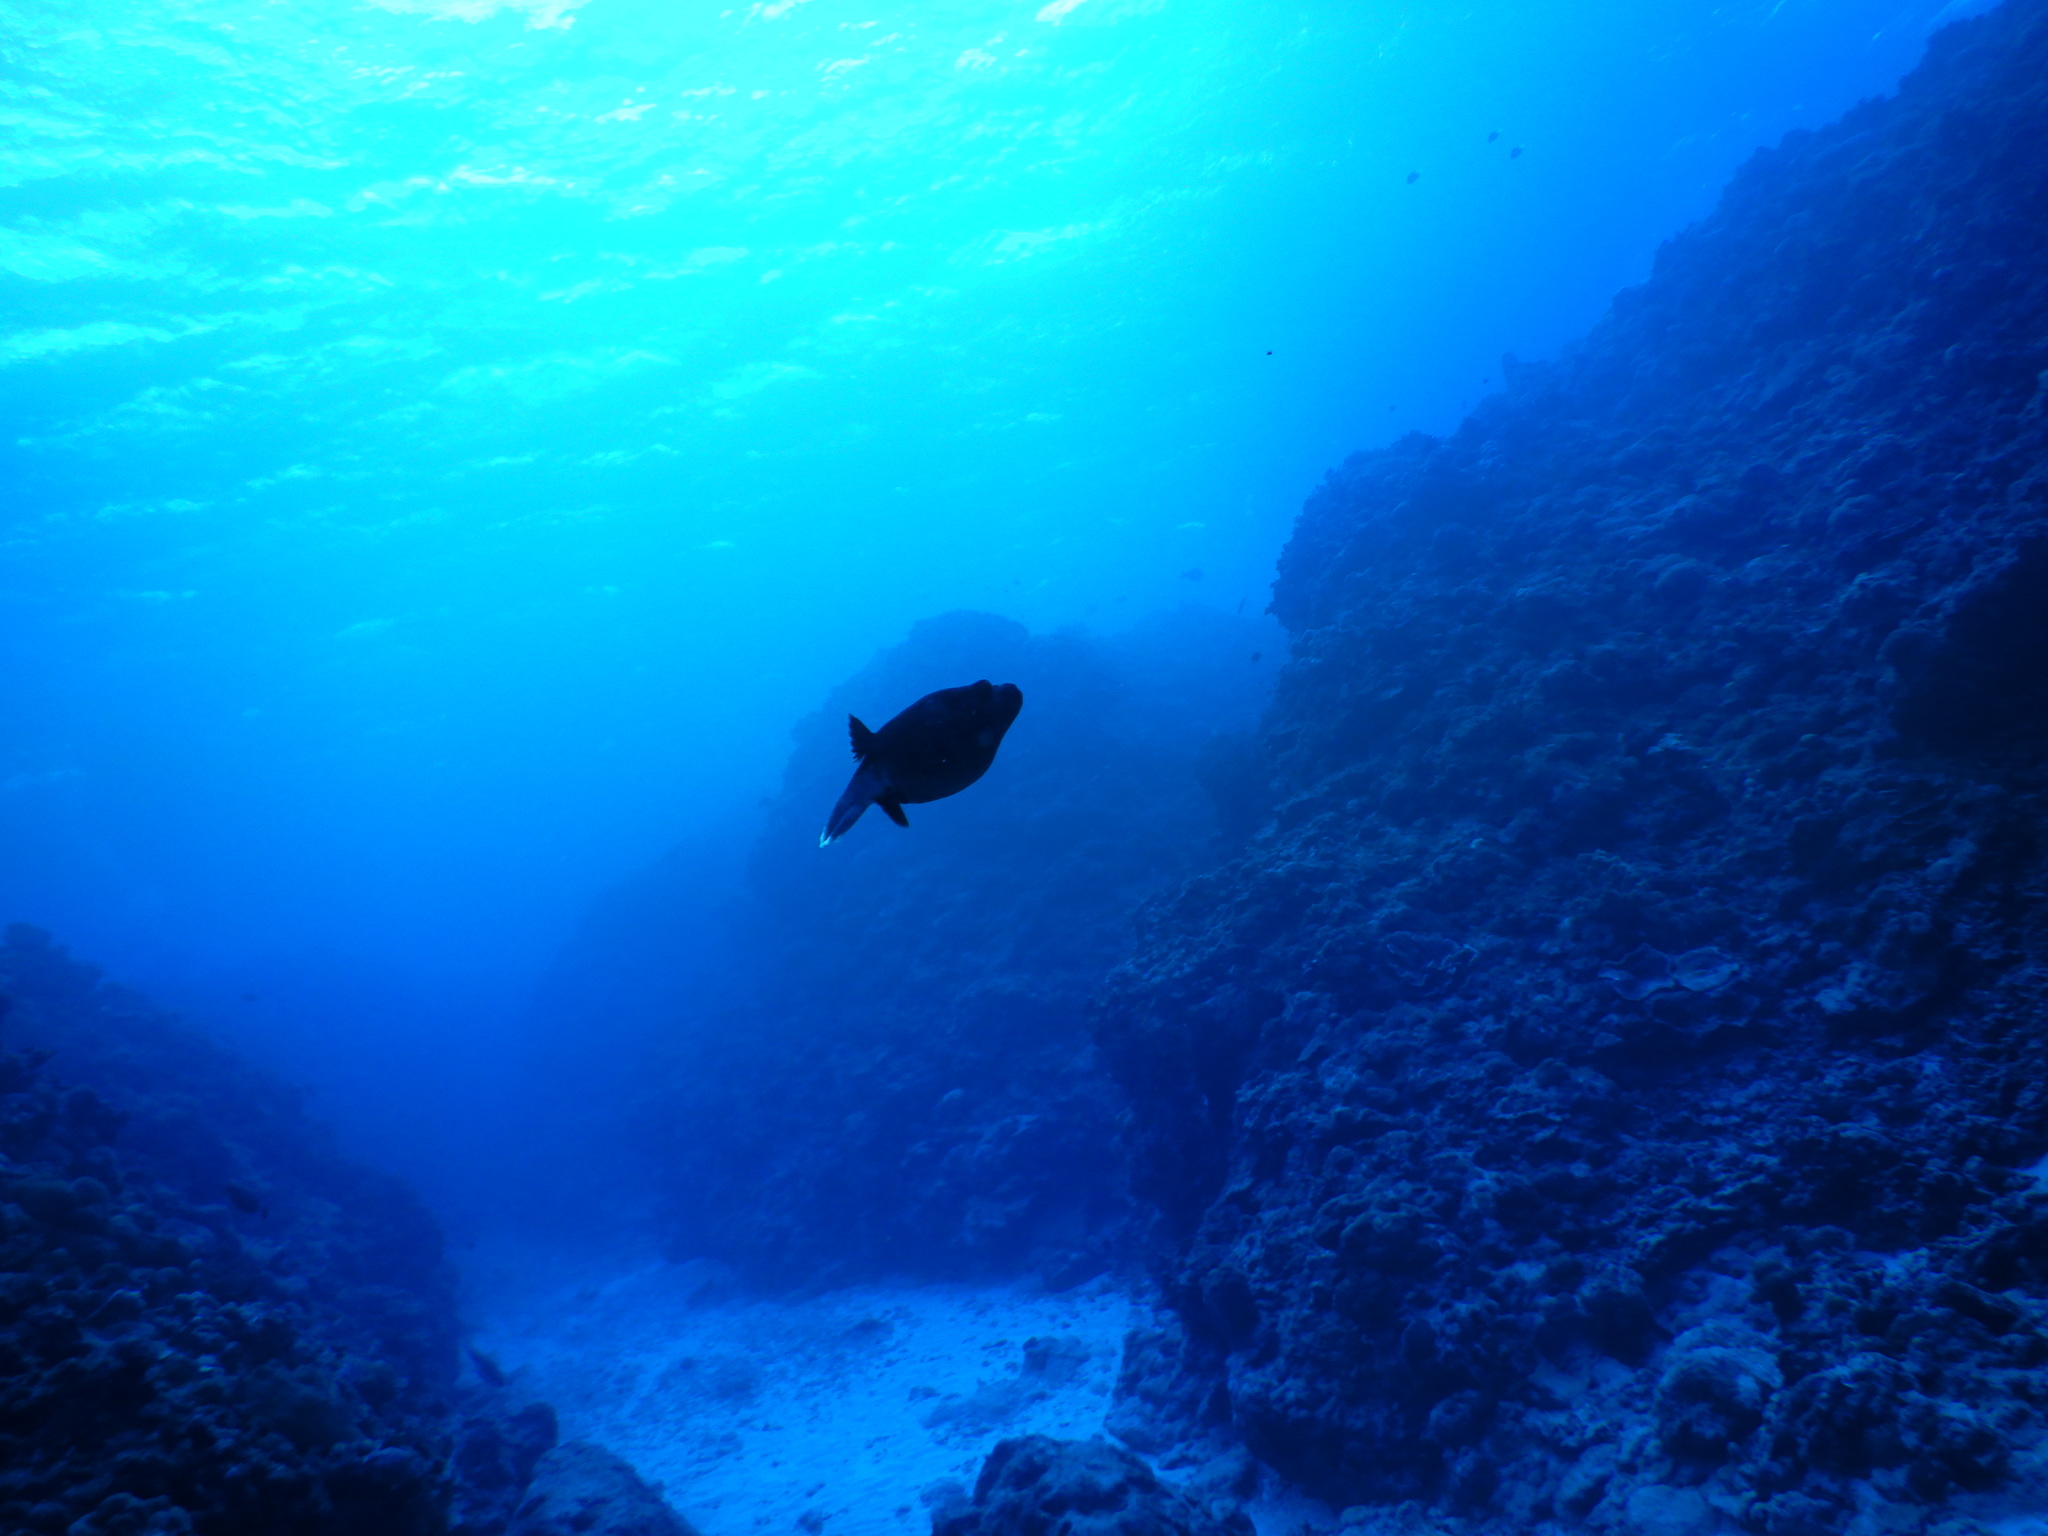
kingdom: Animalia
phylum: Chordata
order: Tetraodontiformes
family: Tetraodontidae
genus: Arothron
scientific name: Arothron nigropunctatus
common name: Black spotted blow fish
